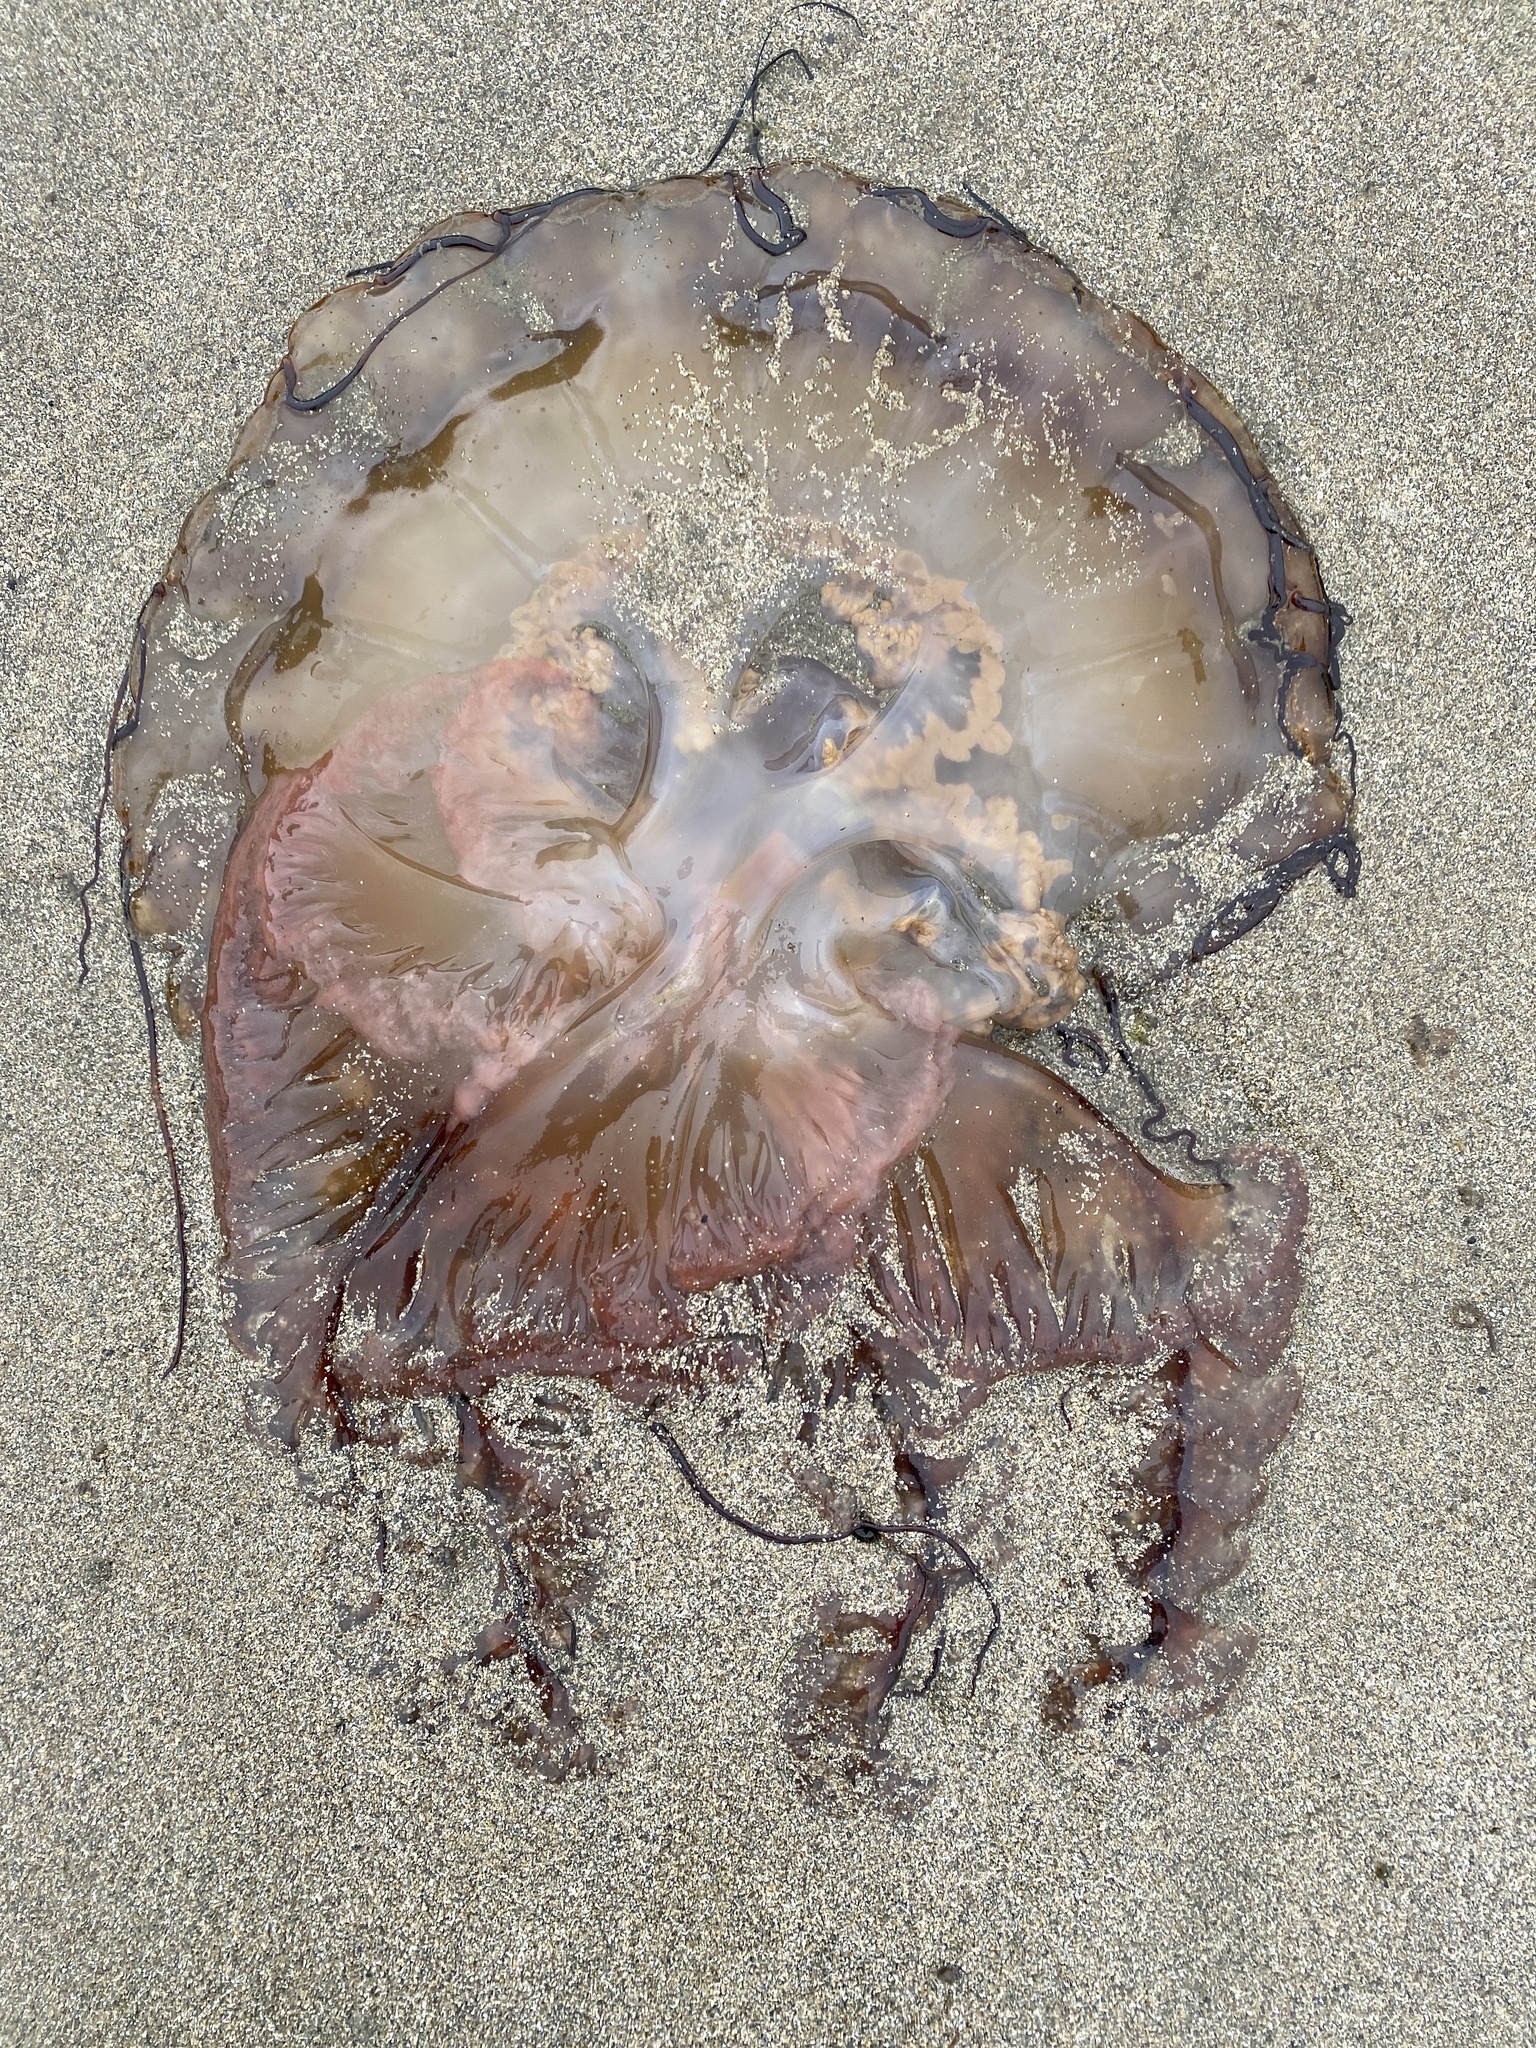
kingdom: Animalia
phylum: Cnidaria
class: Scyphozoa
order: Semaeostomeae
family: Pelagiidae
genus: Chrysaora
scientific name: Chrysaora fuscescens
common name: Sea nettle
